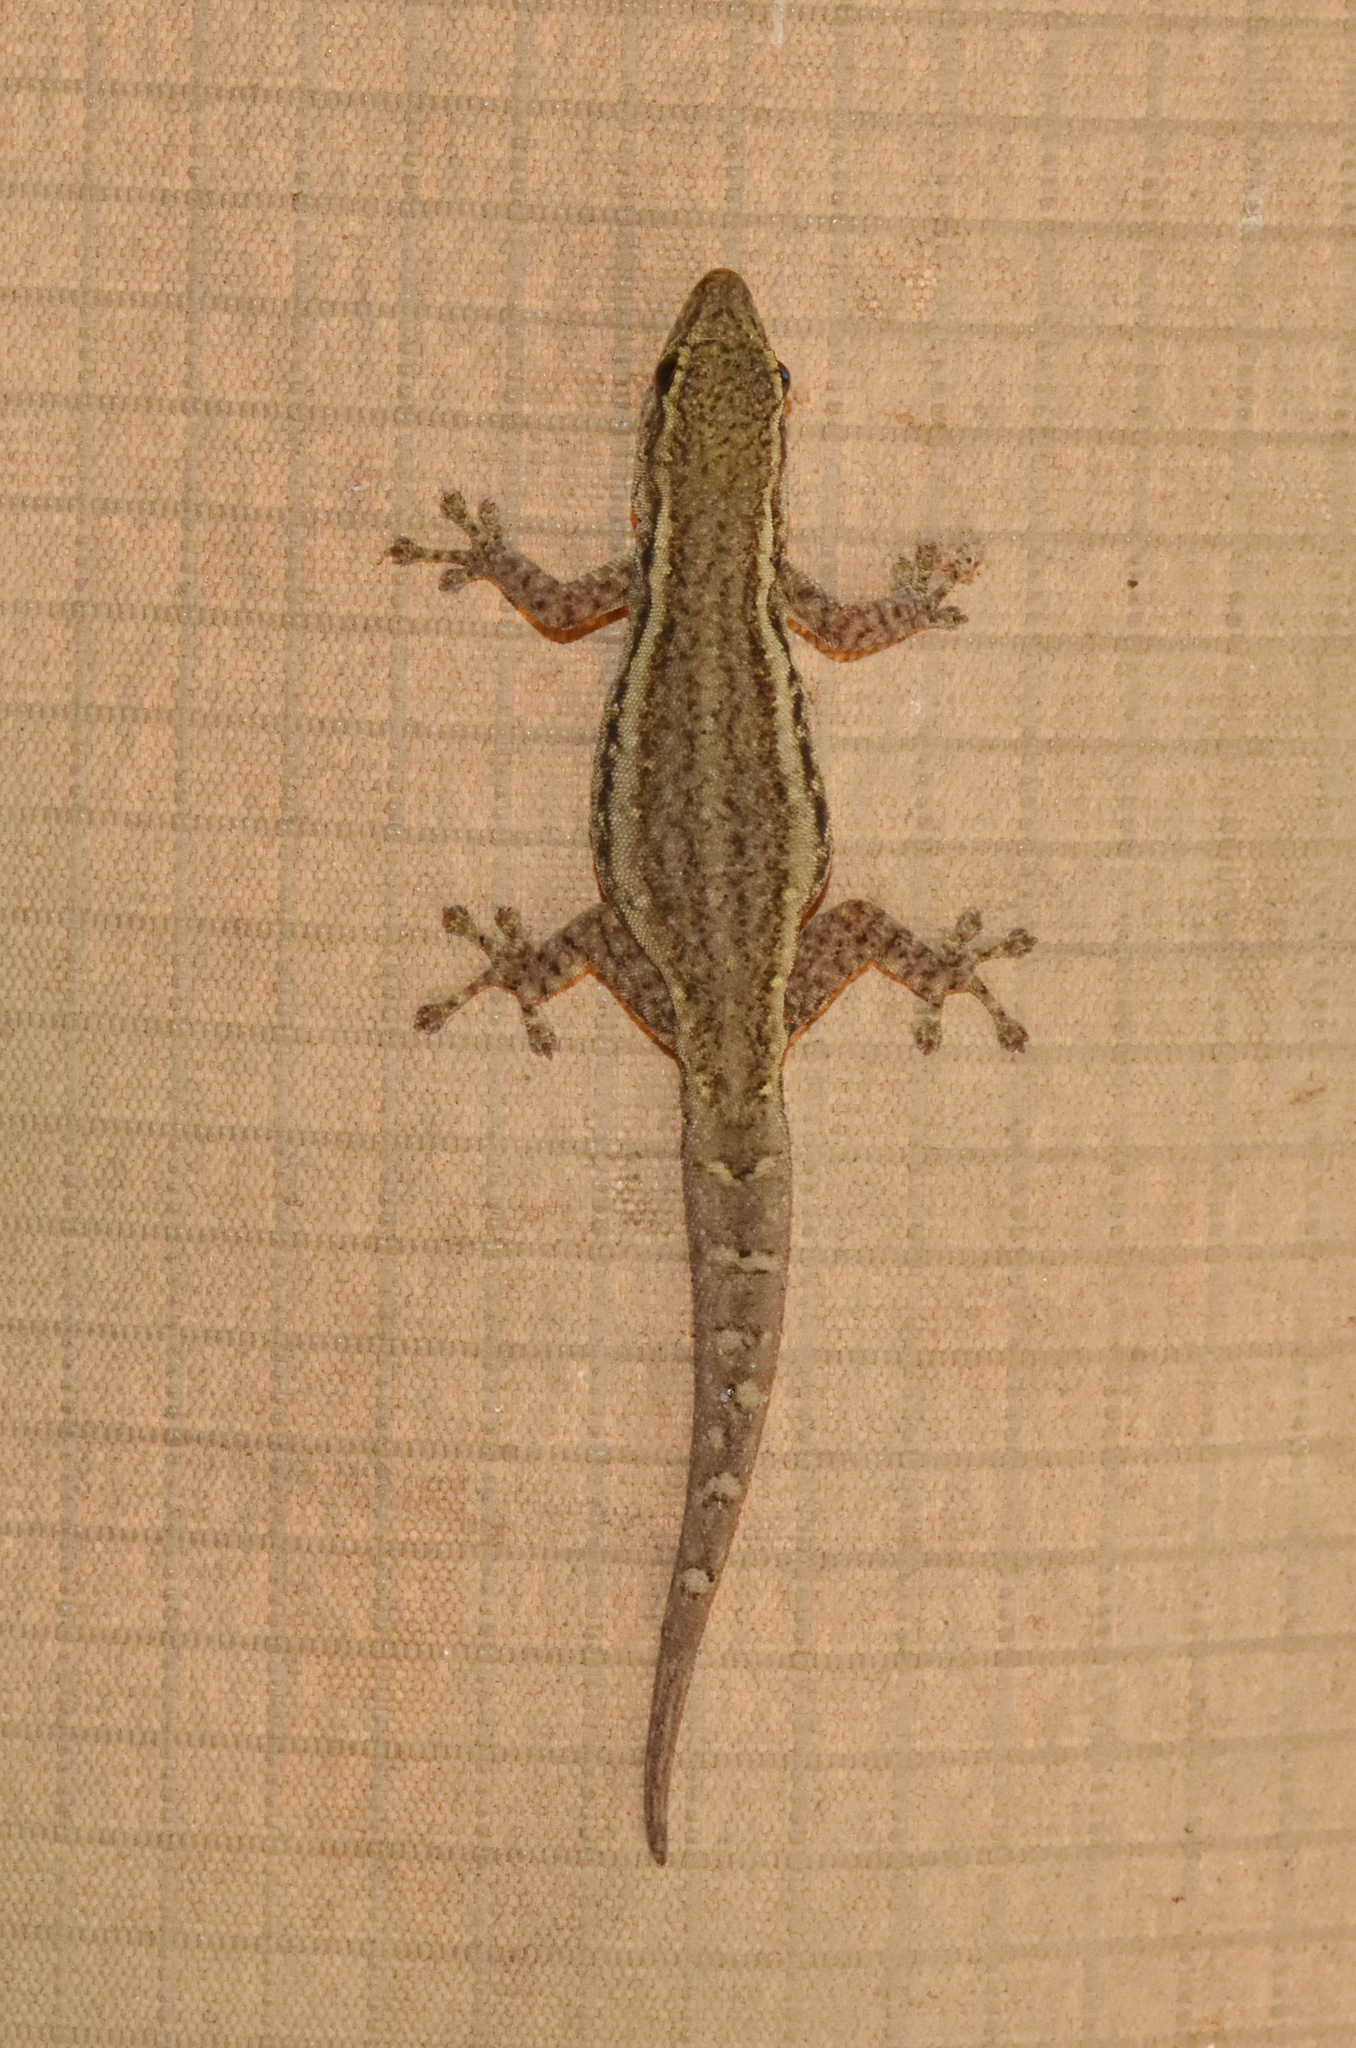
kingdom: Animalia
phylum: Chordata
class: Squamata
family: Gekkonidae
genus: Lygodactylus
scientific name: Lygodactylus capensis
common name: Cape dwarf gecko
